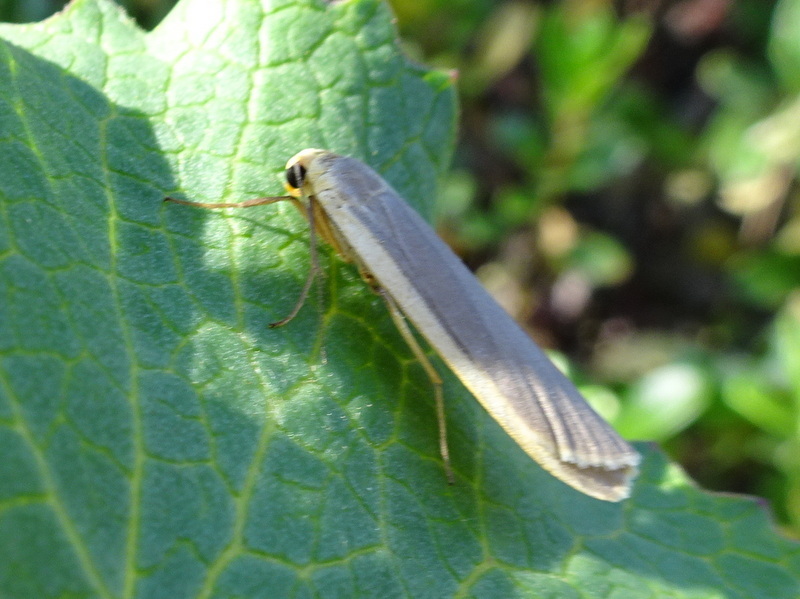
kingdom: Animalia
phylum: Arthropoda
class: Insecta
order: Lepidoptera
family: Erebidae
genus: Nyea
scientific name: Nyea lurideola
